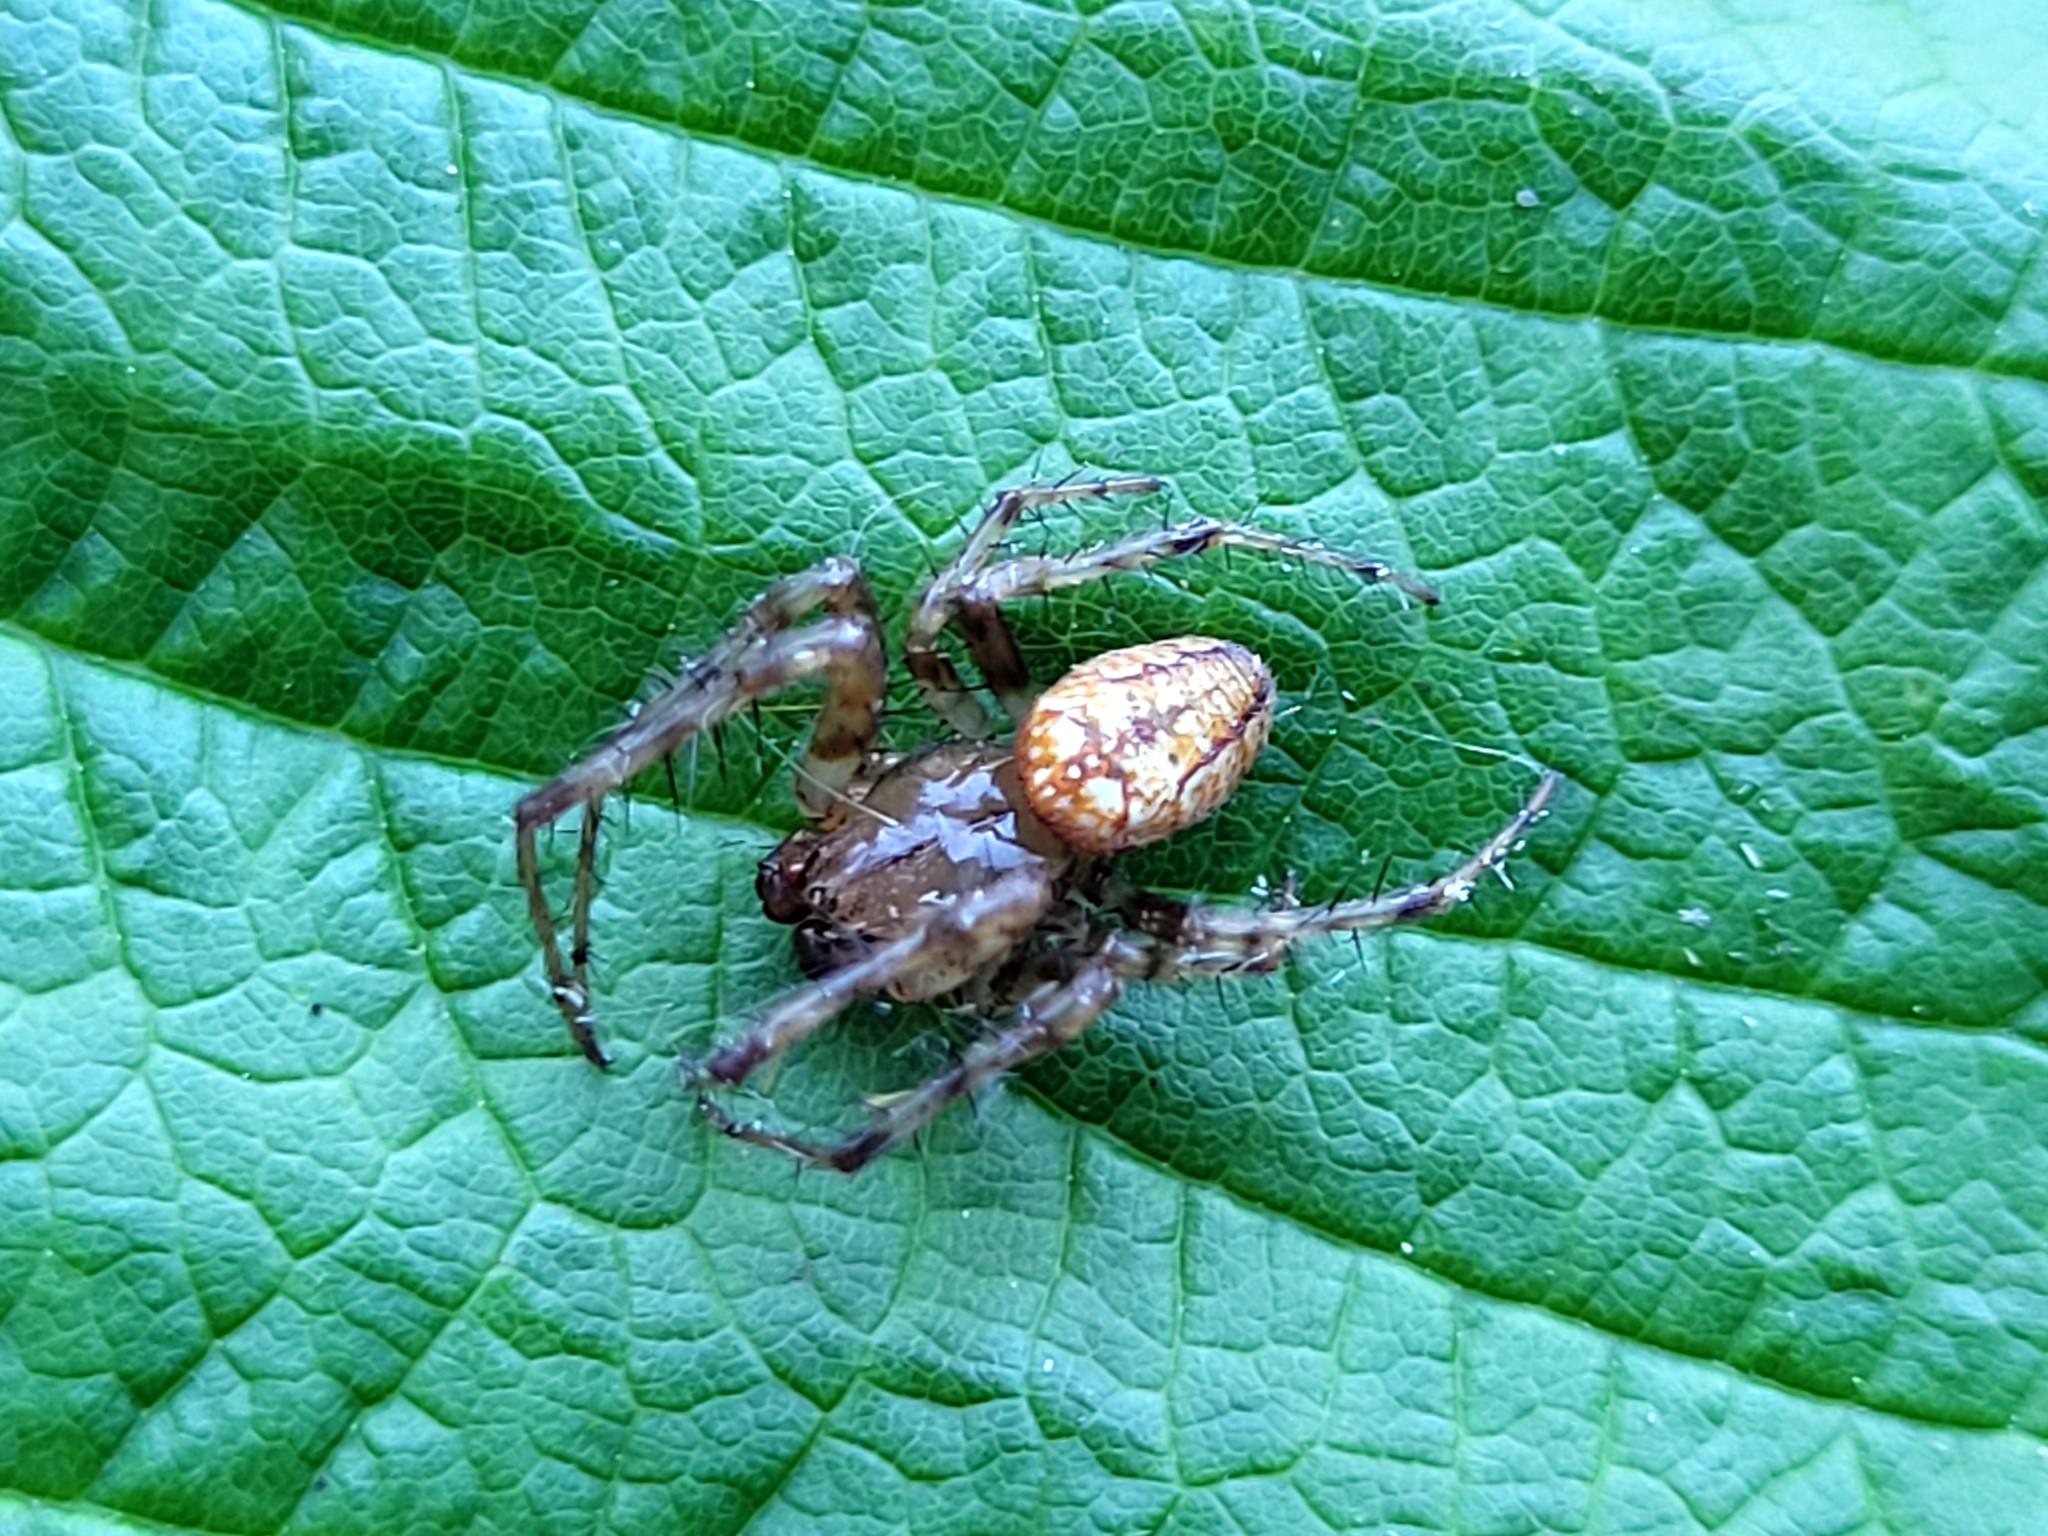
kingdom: Animalia
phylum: Arthropoda
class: Arachnida
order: Araneae
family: Araneidae
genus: Araneus
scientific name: Araneus iviei
